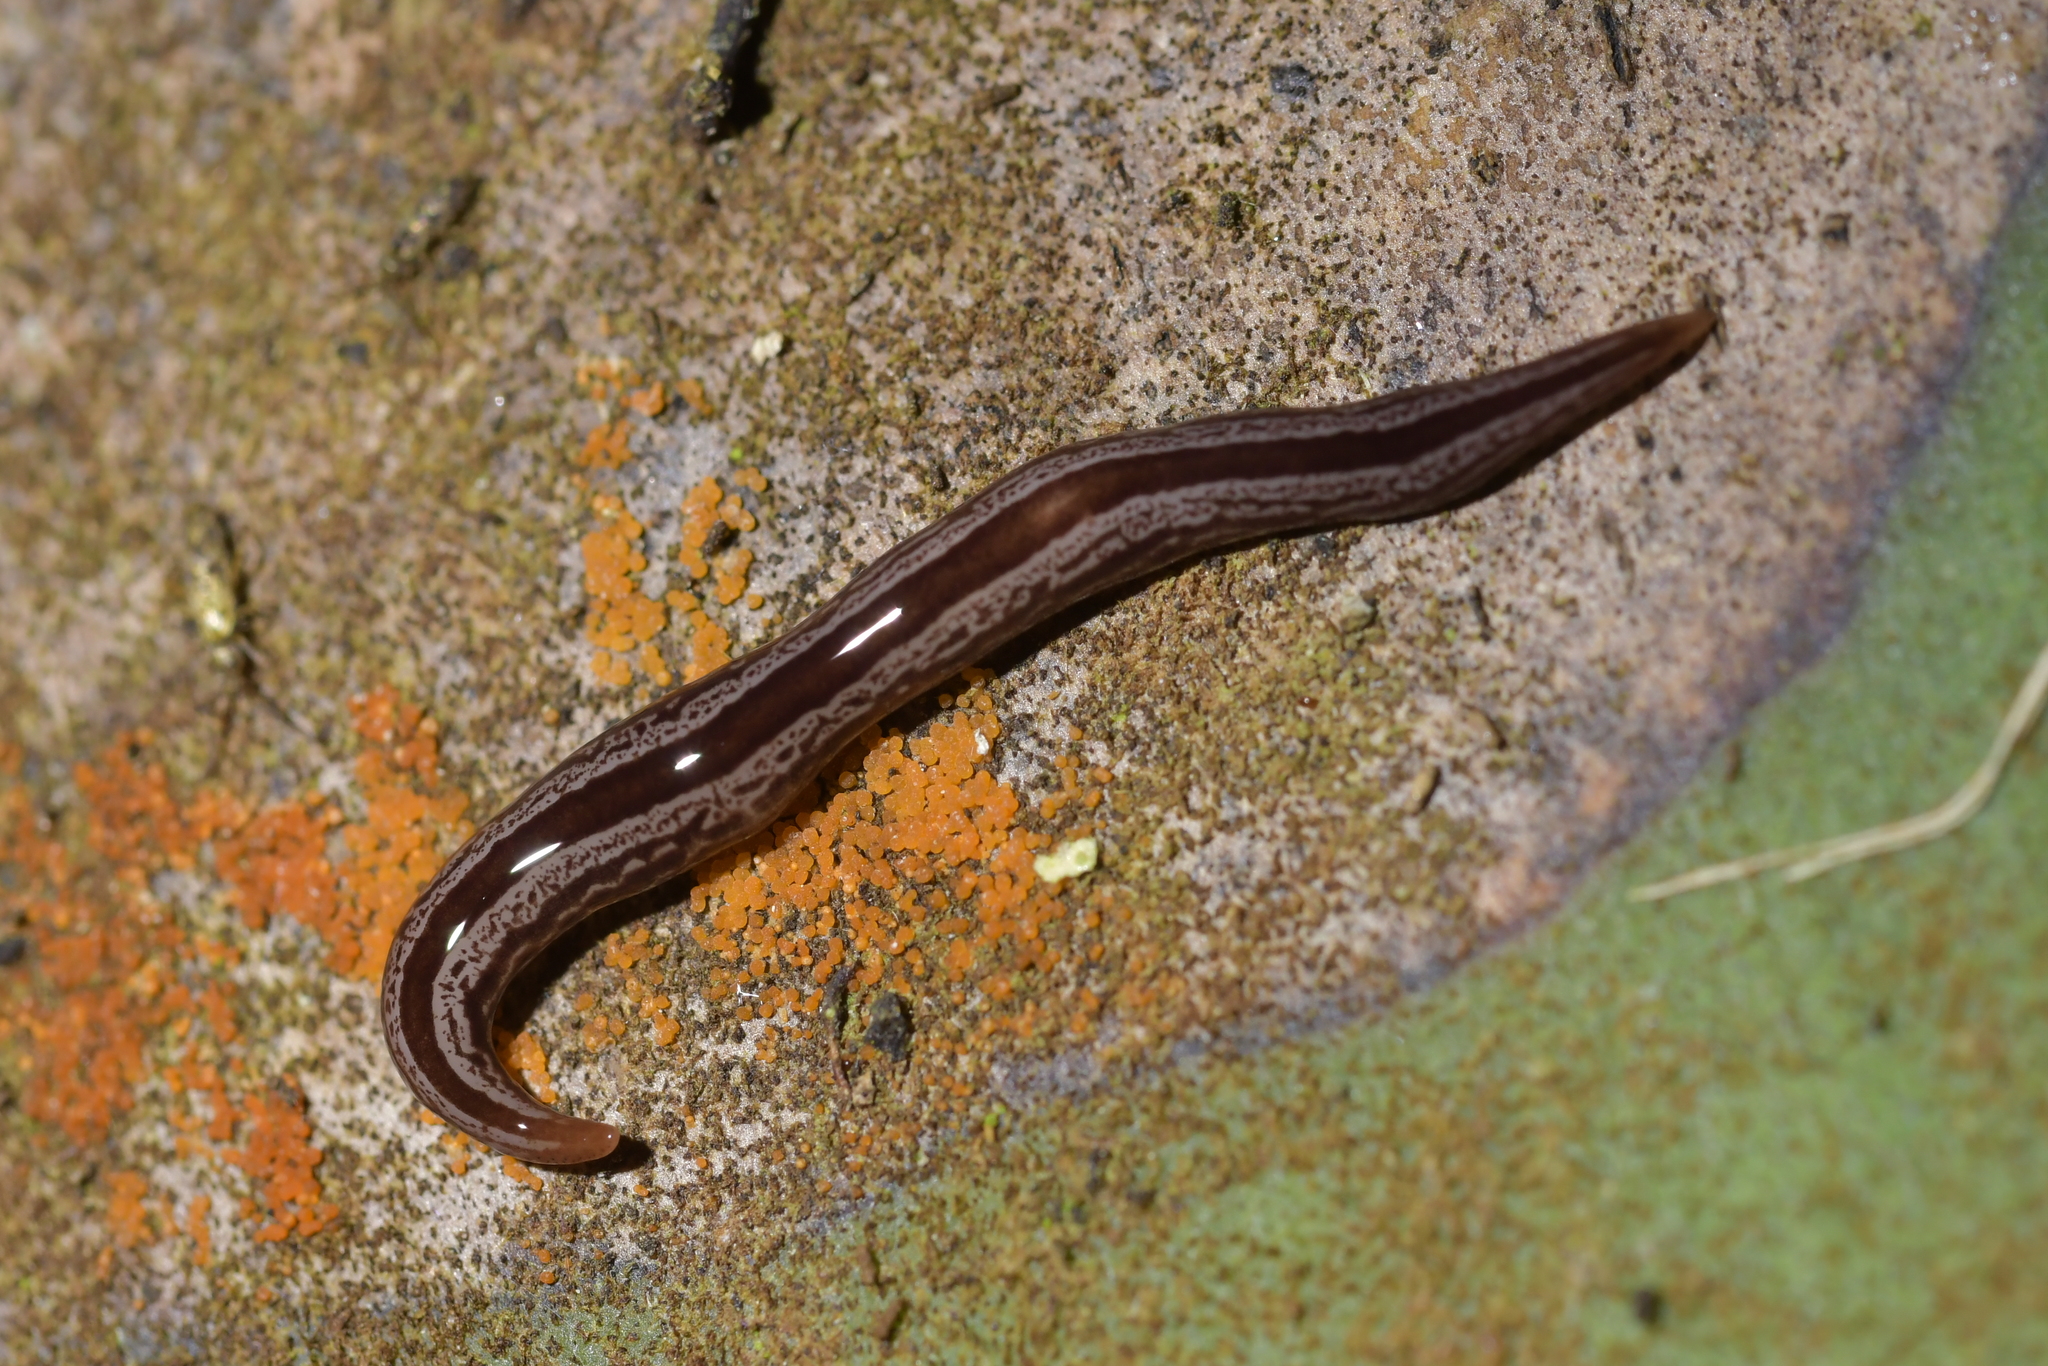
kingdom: Animalia
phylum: Platyhelminthes
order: Tricladida
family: Geoplanidae
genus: Artioposthia
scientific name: Artioposthia exulans
